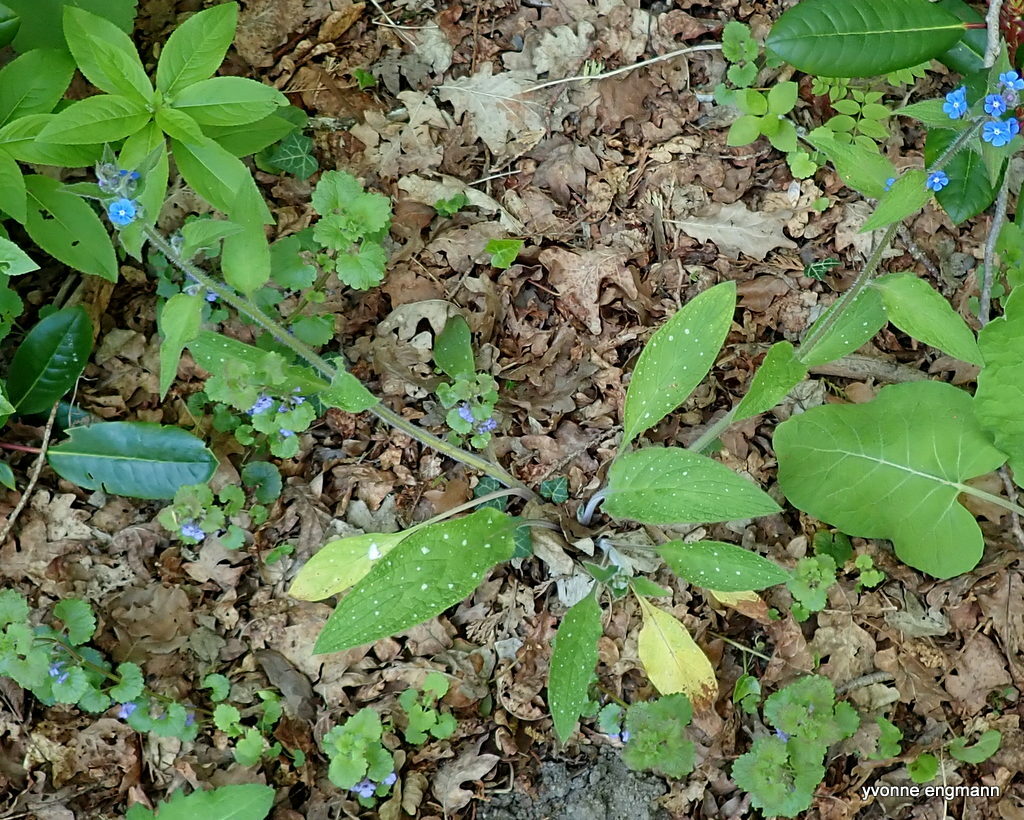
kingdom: Plantae
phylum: Tracheophyta
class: Magnoliopsida
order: Boraginales
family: Boraginaceae
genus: Pentaglottis
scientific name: Pentaglottis sempervirens
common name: Green alkanet
